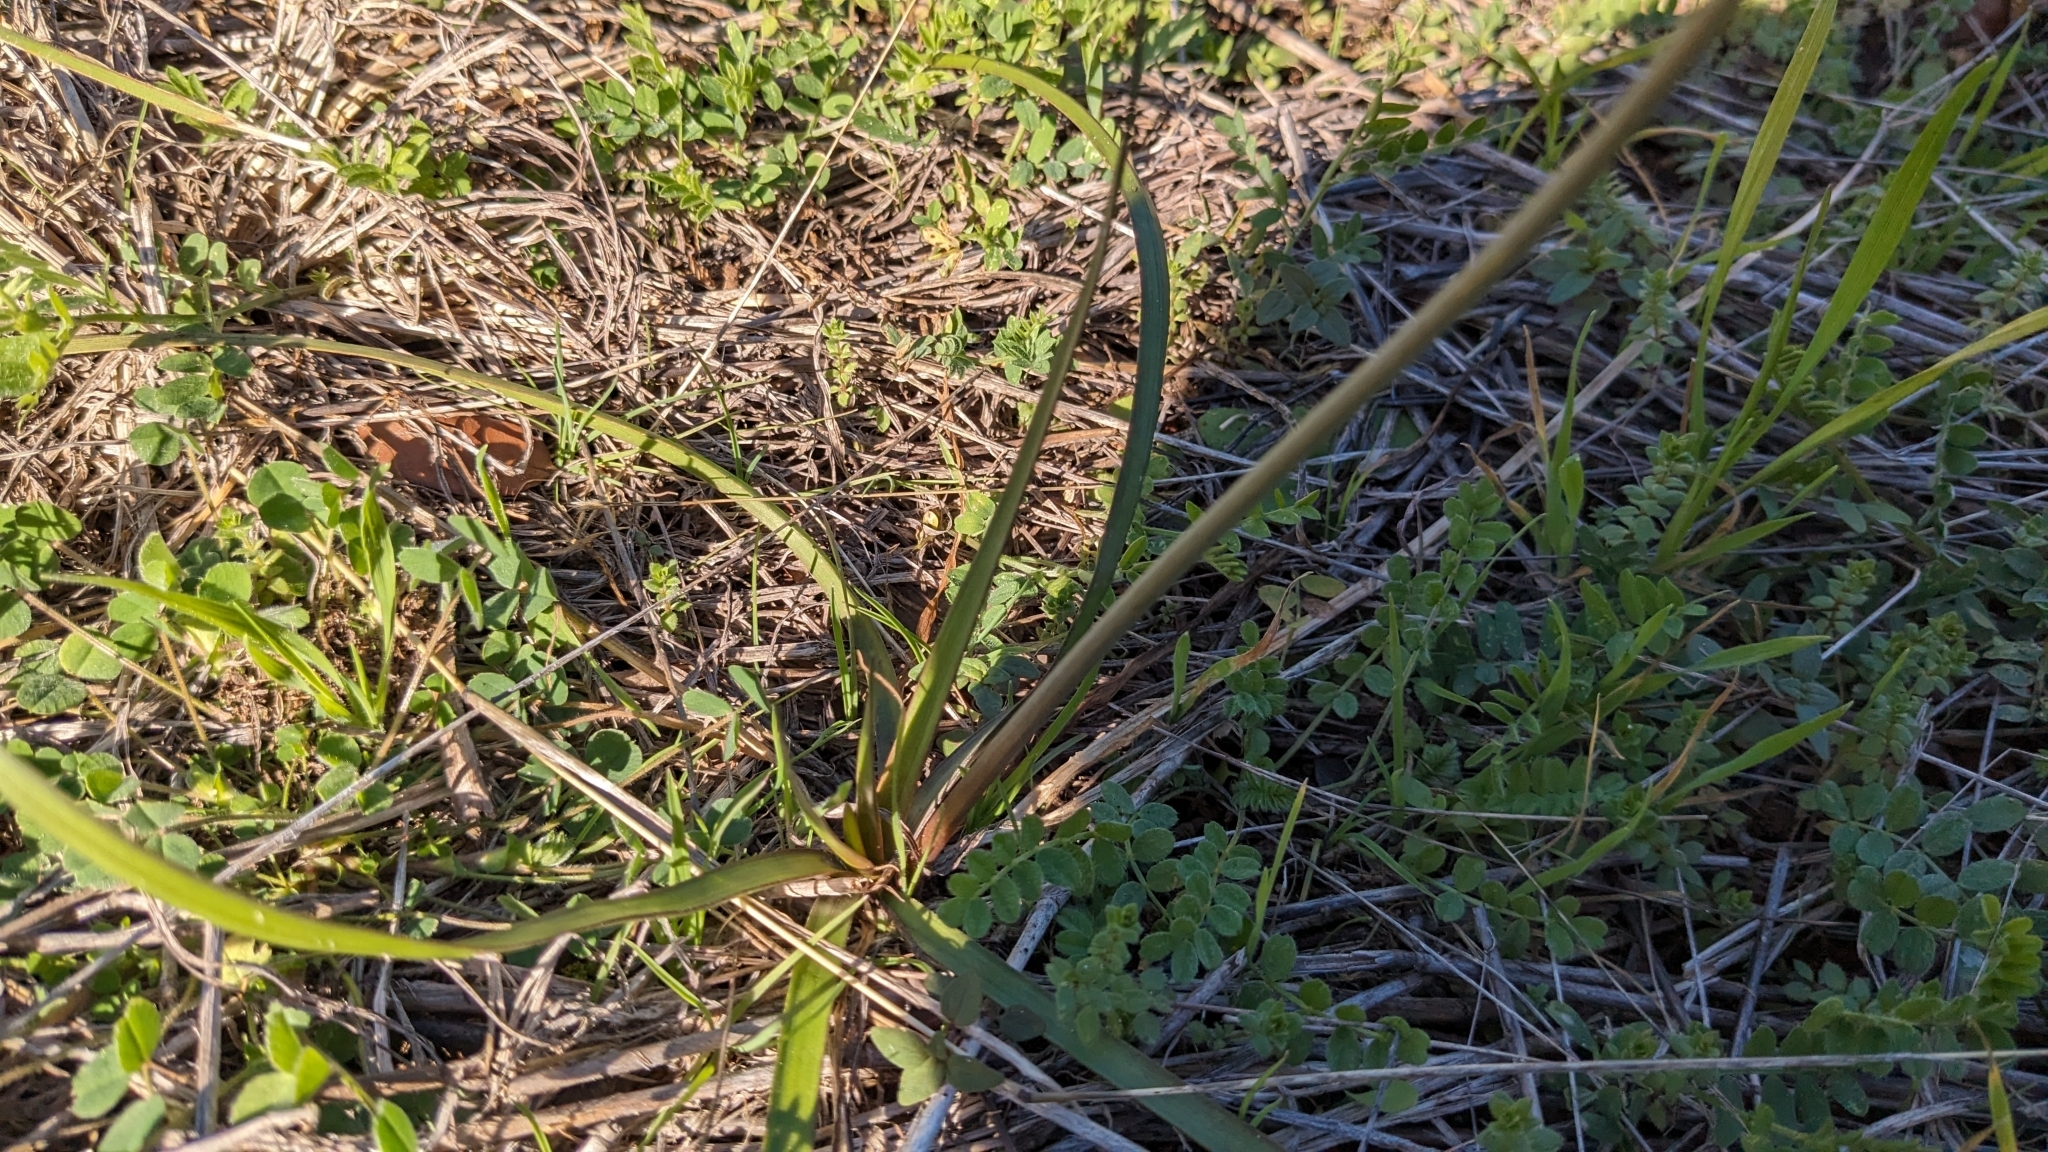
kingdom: Plantae
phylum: Tracheophyta
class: Liliopsida
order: Asparagales
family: Amaryllidaceae
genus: Nothoscordum
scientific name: Nothoscordum bivalve
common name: Crow-poison
